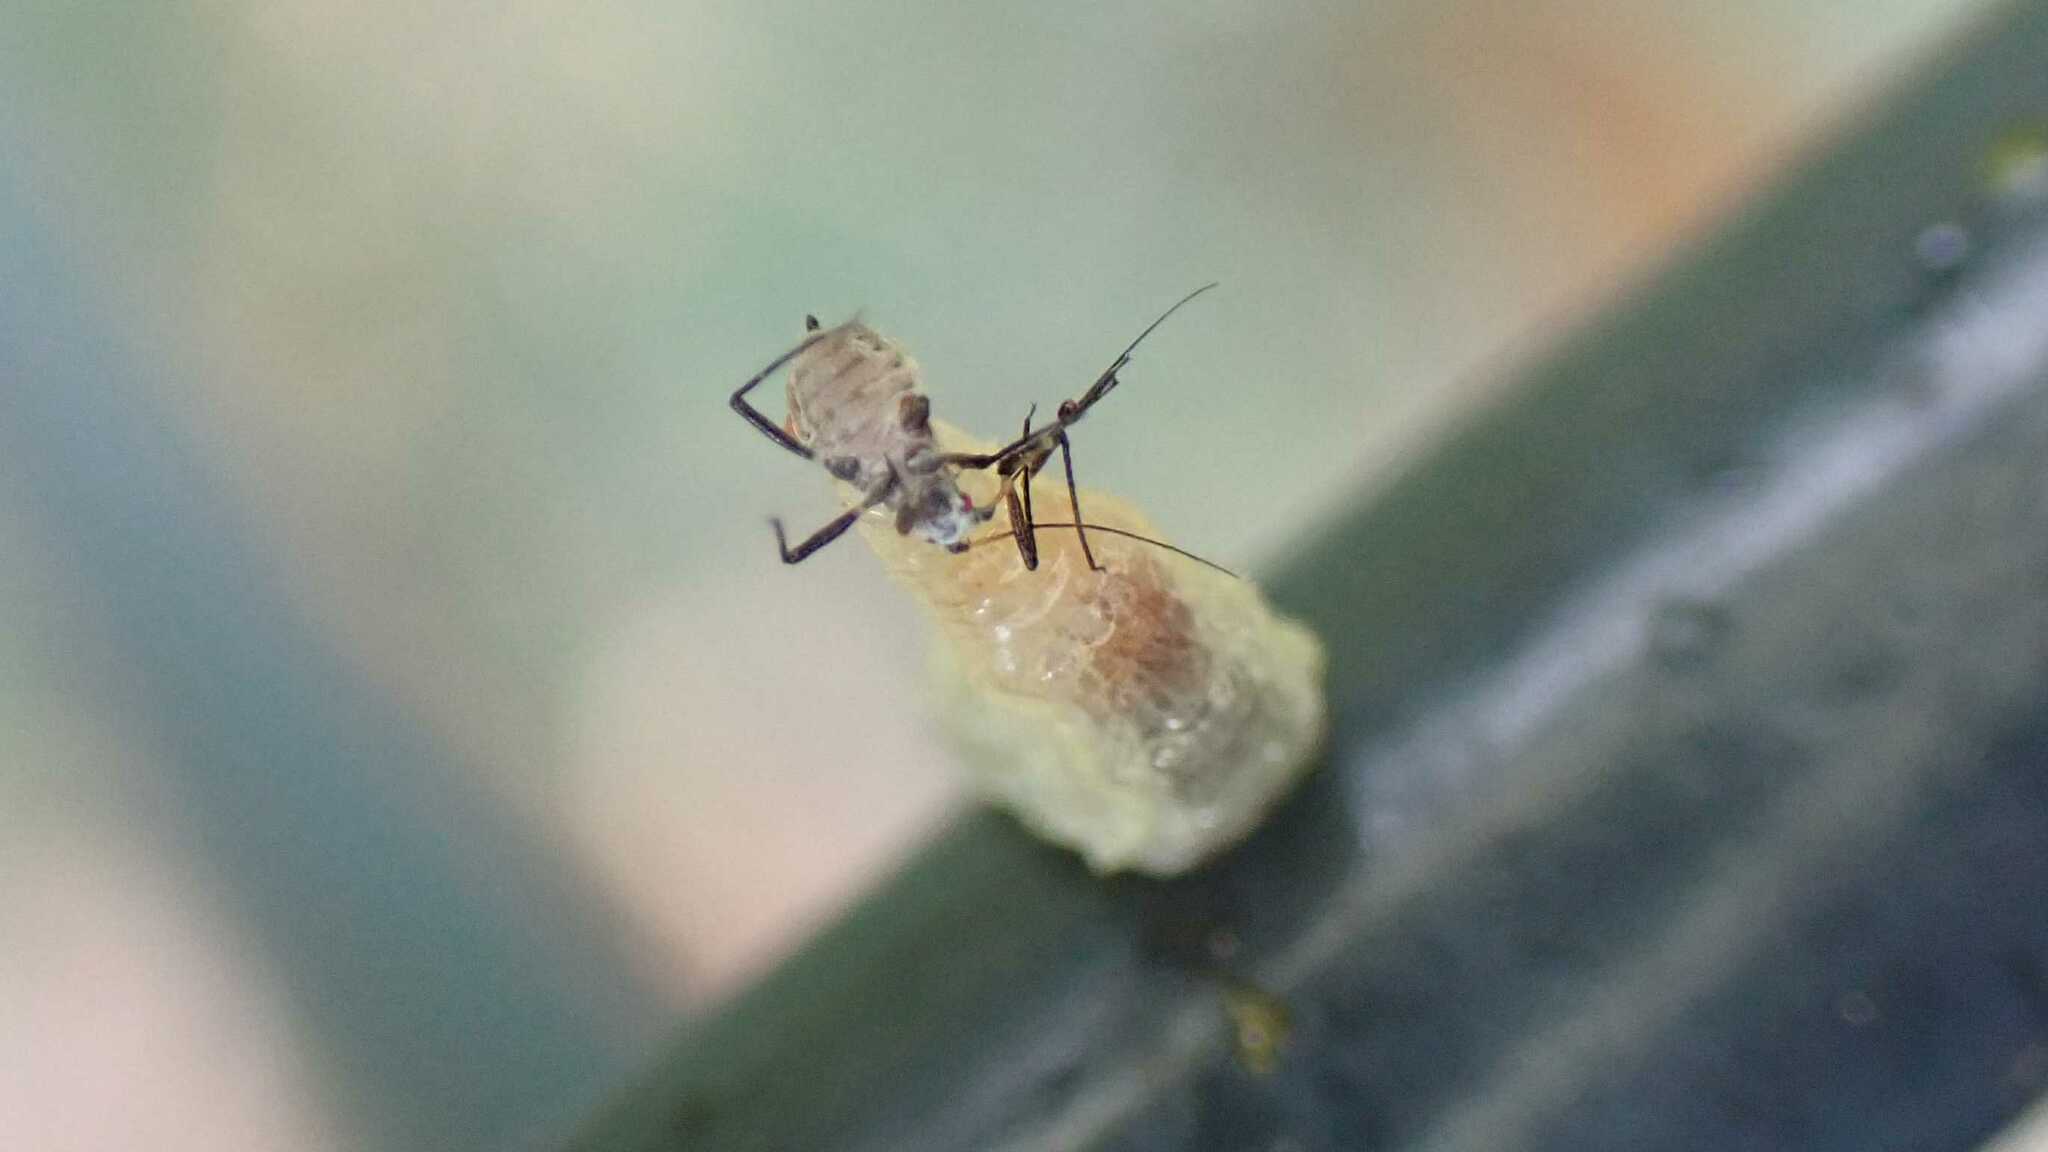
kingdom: Animalia
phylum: Arthropoda
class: Insecta
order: Diptera
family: Syrphidae
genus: Syrphus
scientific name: Syrphus
